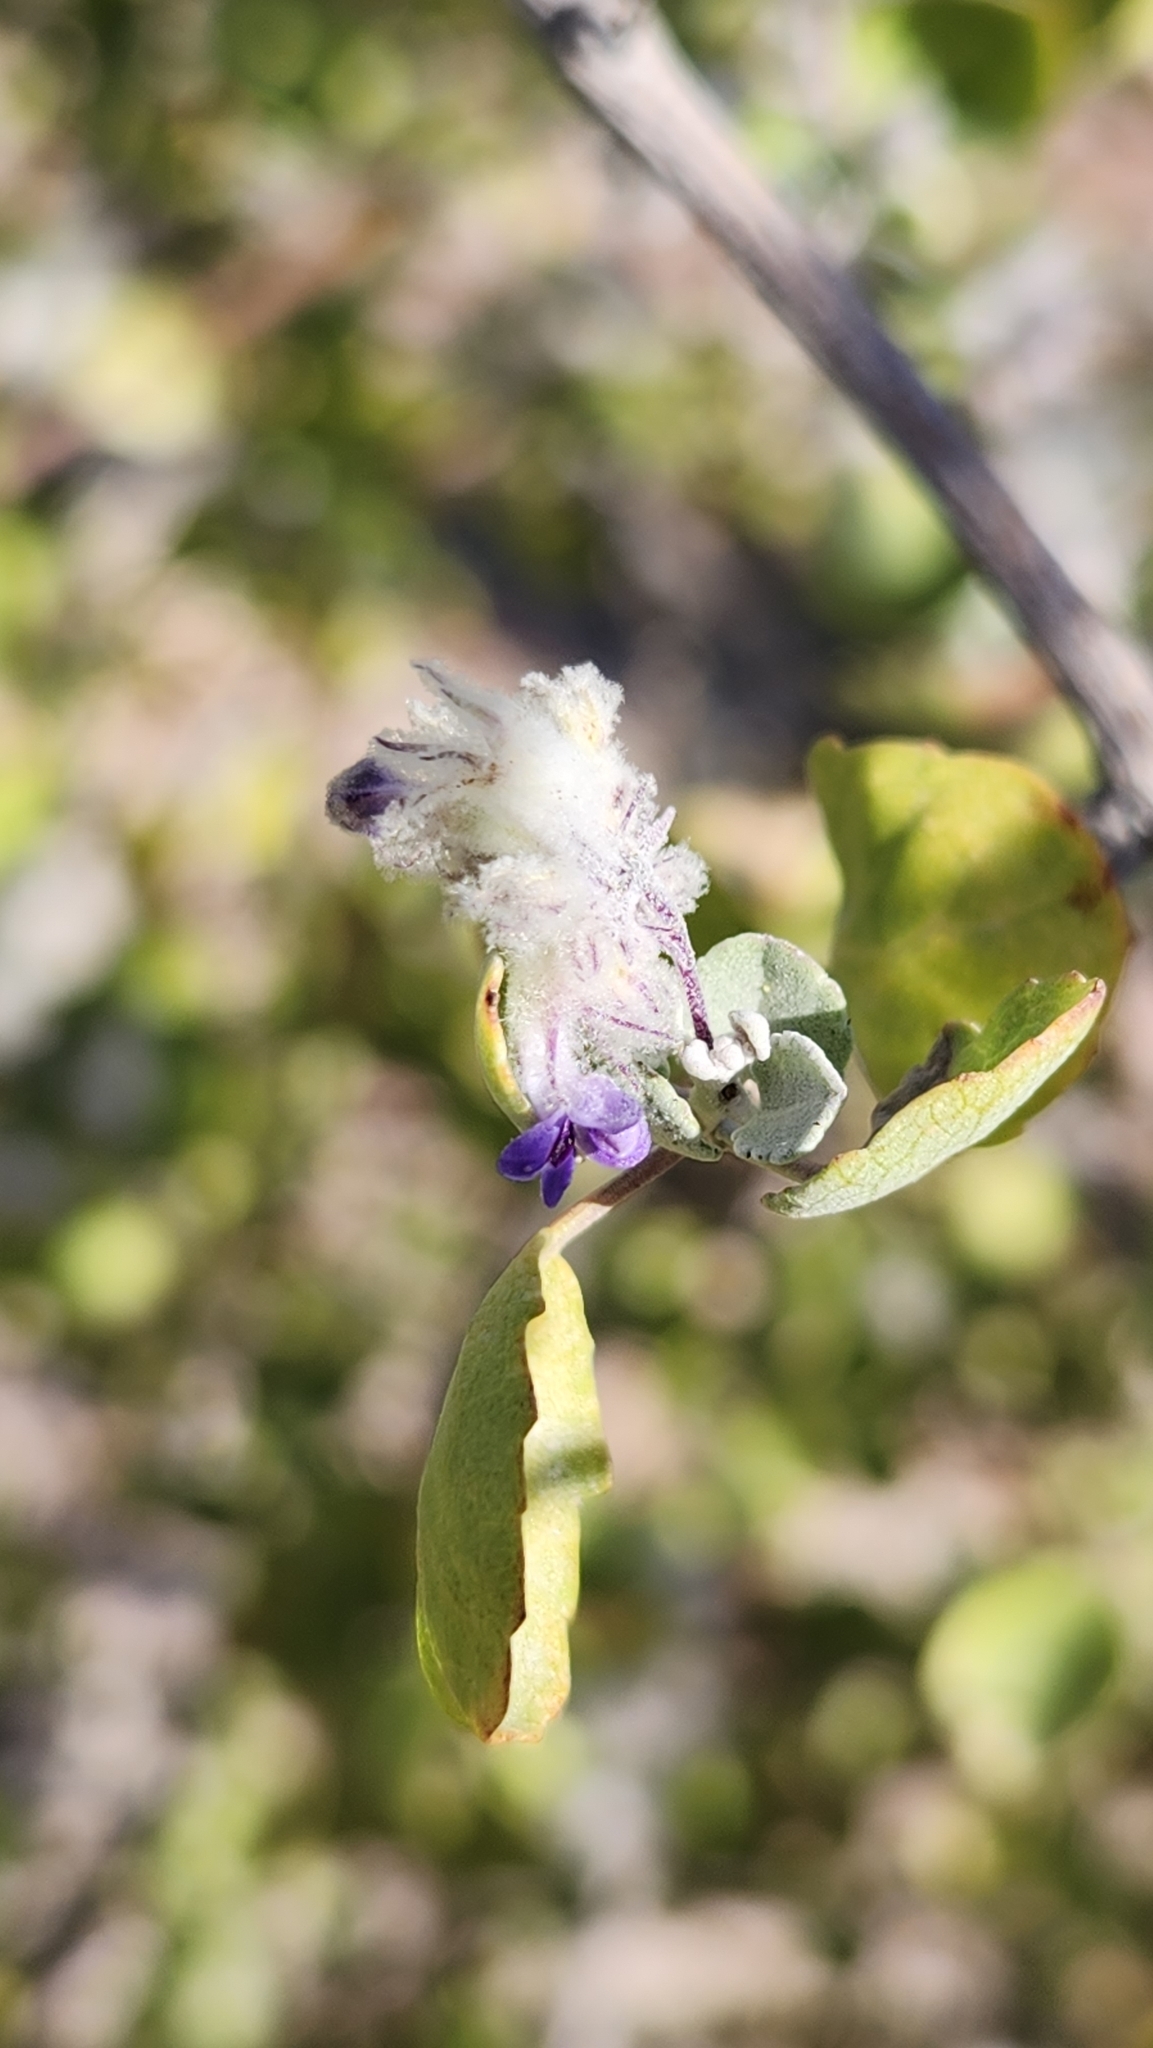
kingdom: Plantae
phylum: Tracheophyta
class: Magnoliopsida
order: Lamiales
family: Lamiaceae
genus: Condea
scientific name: Condea laniflora
